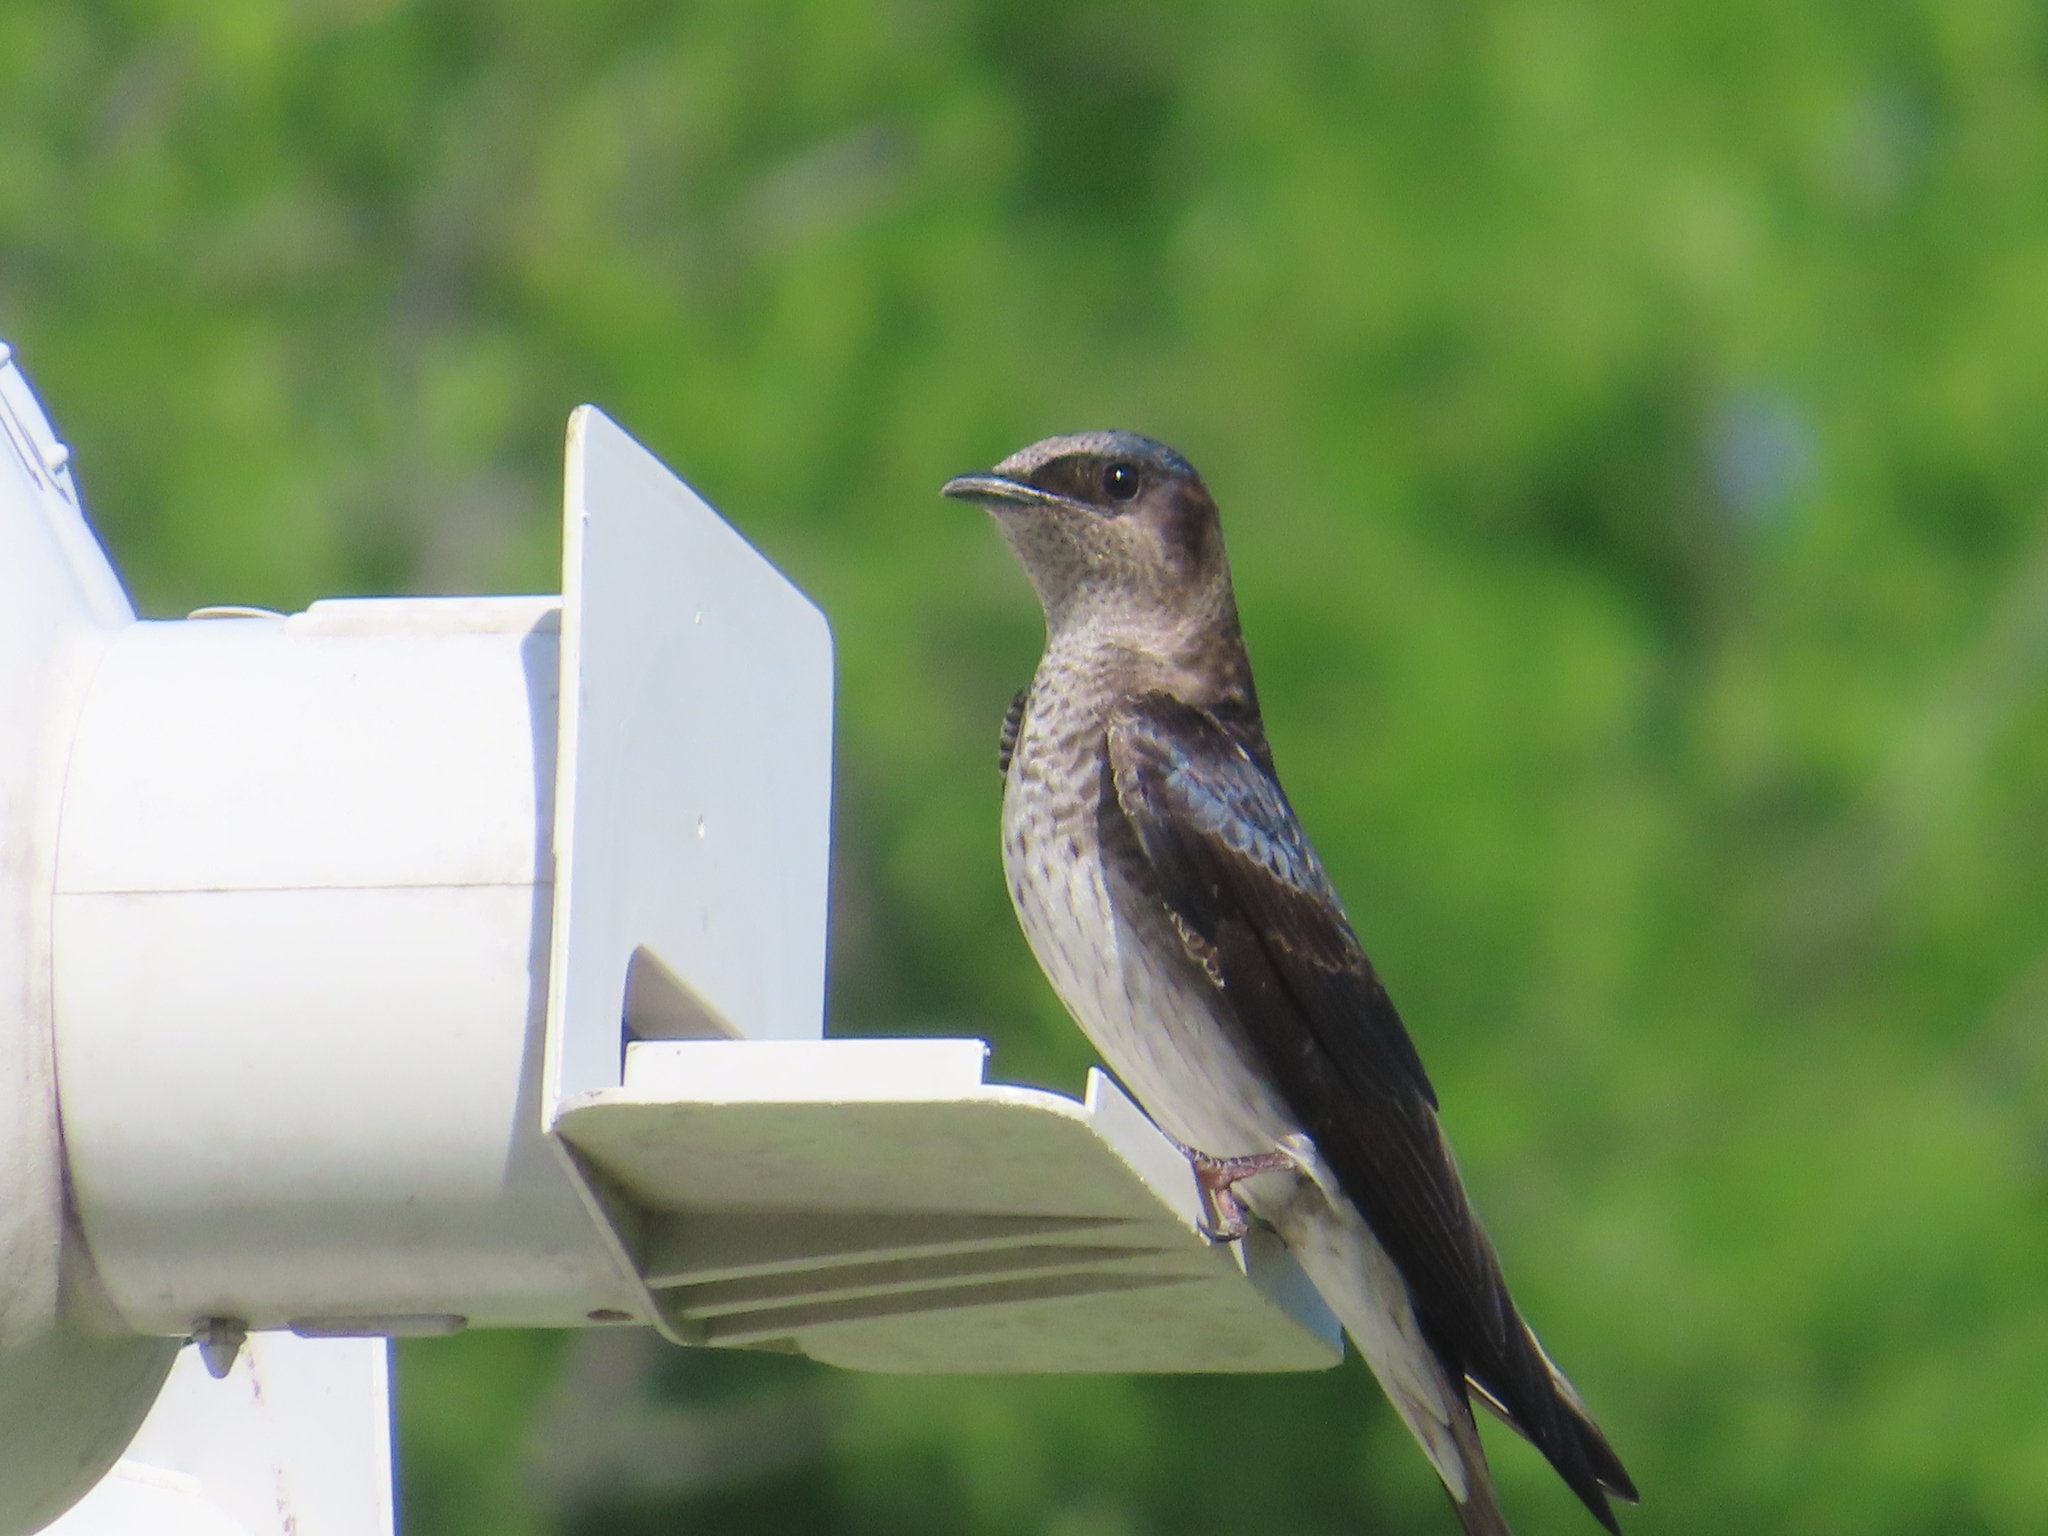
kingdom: Animalia
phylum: Chordata
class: Aves
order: Passeriformes
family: Hirundinidae
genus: Progne
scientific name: Progne subis
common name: Purple martin
